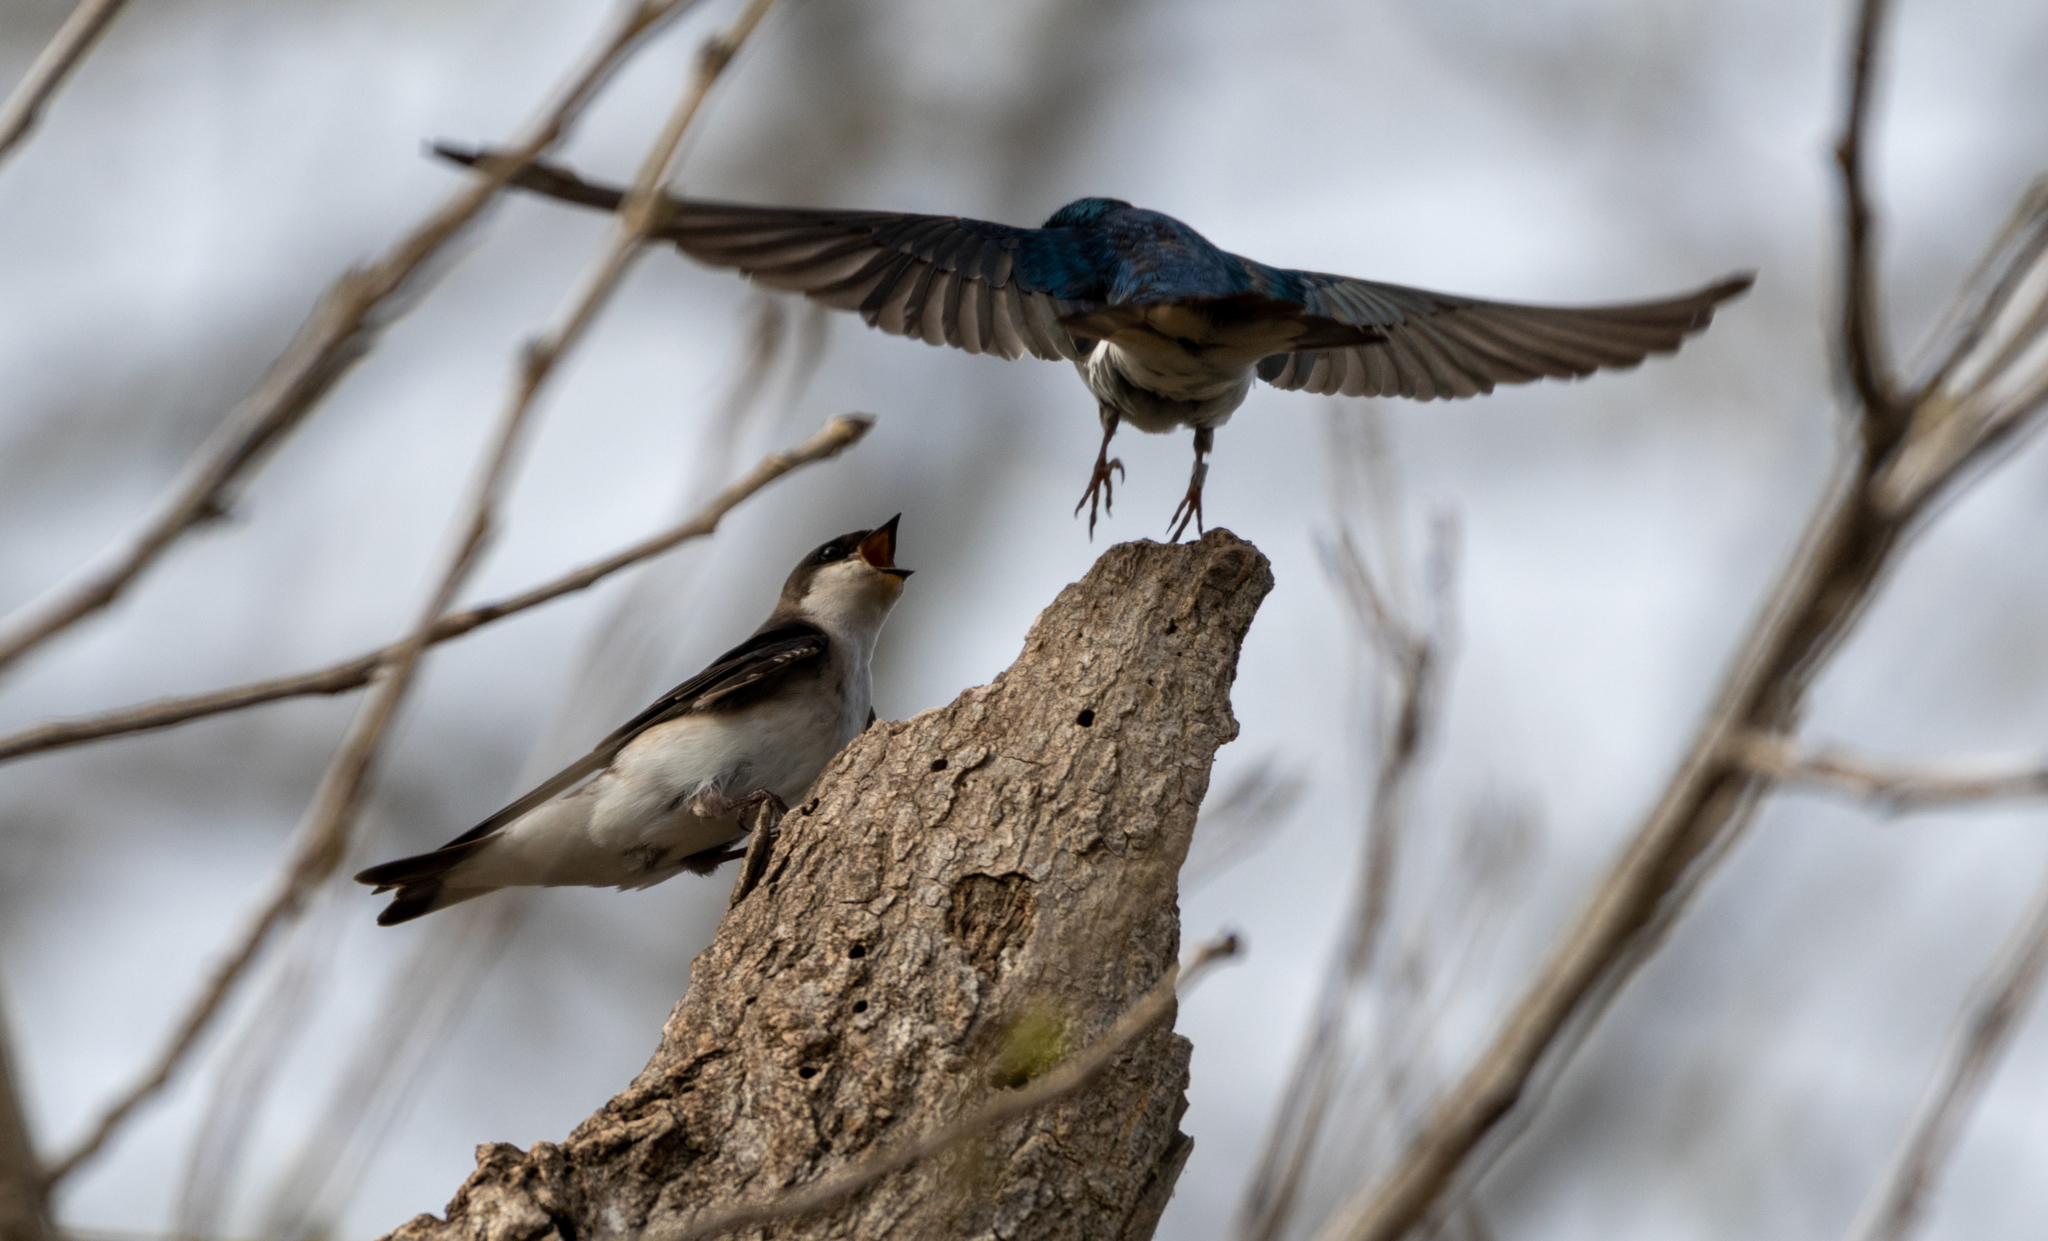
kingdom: Animalia
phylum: Chordata
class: Aves
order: Passeriformes
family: Hirundinidae
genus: Tachycineta
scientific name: Tachycineta bicolor
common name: Tree swallow
